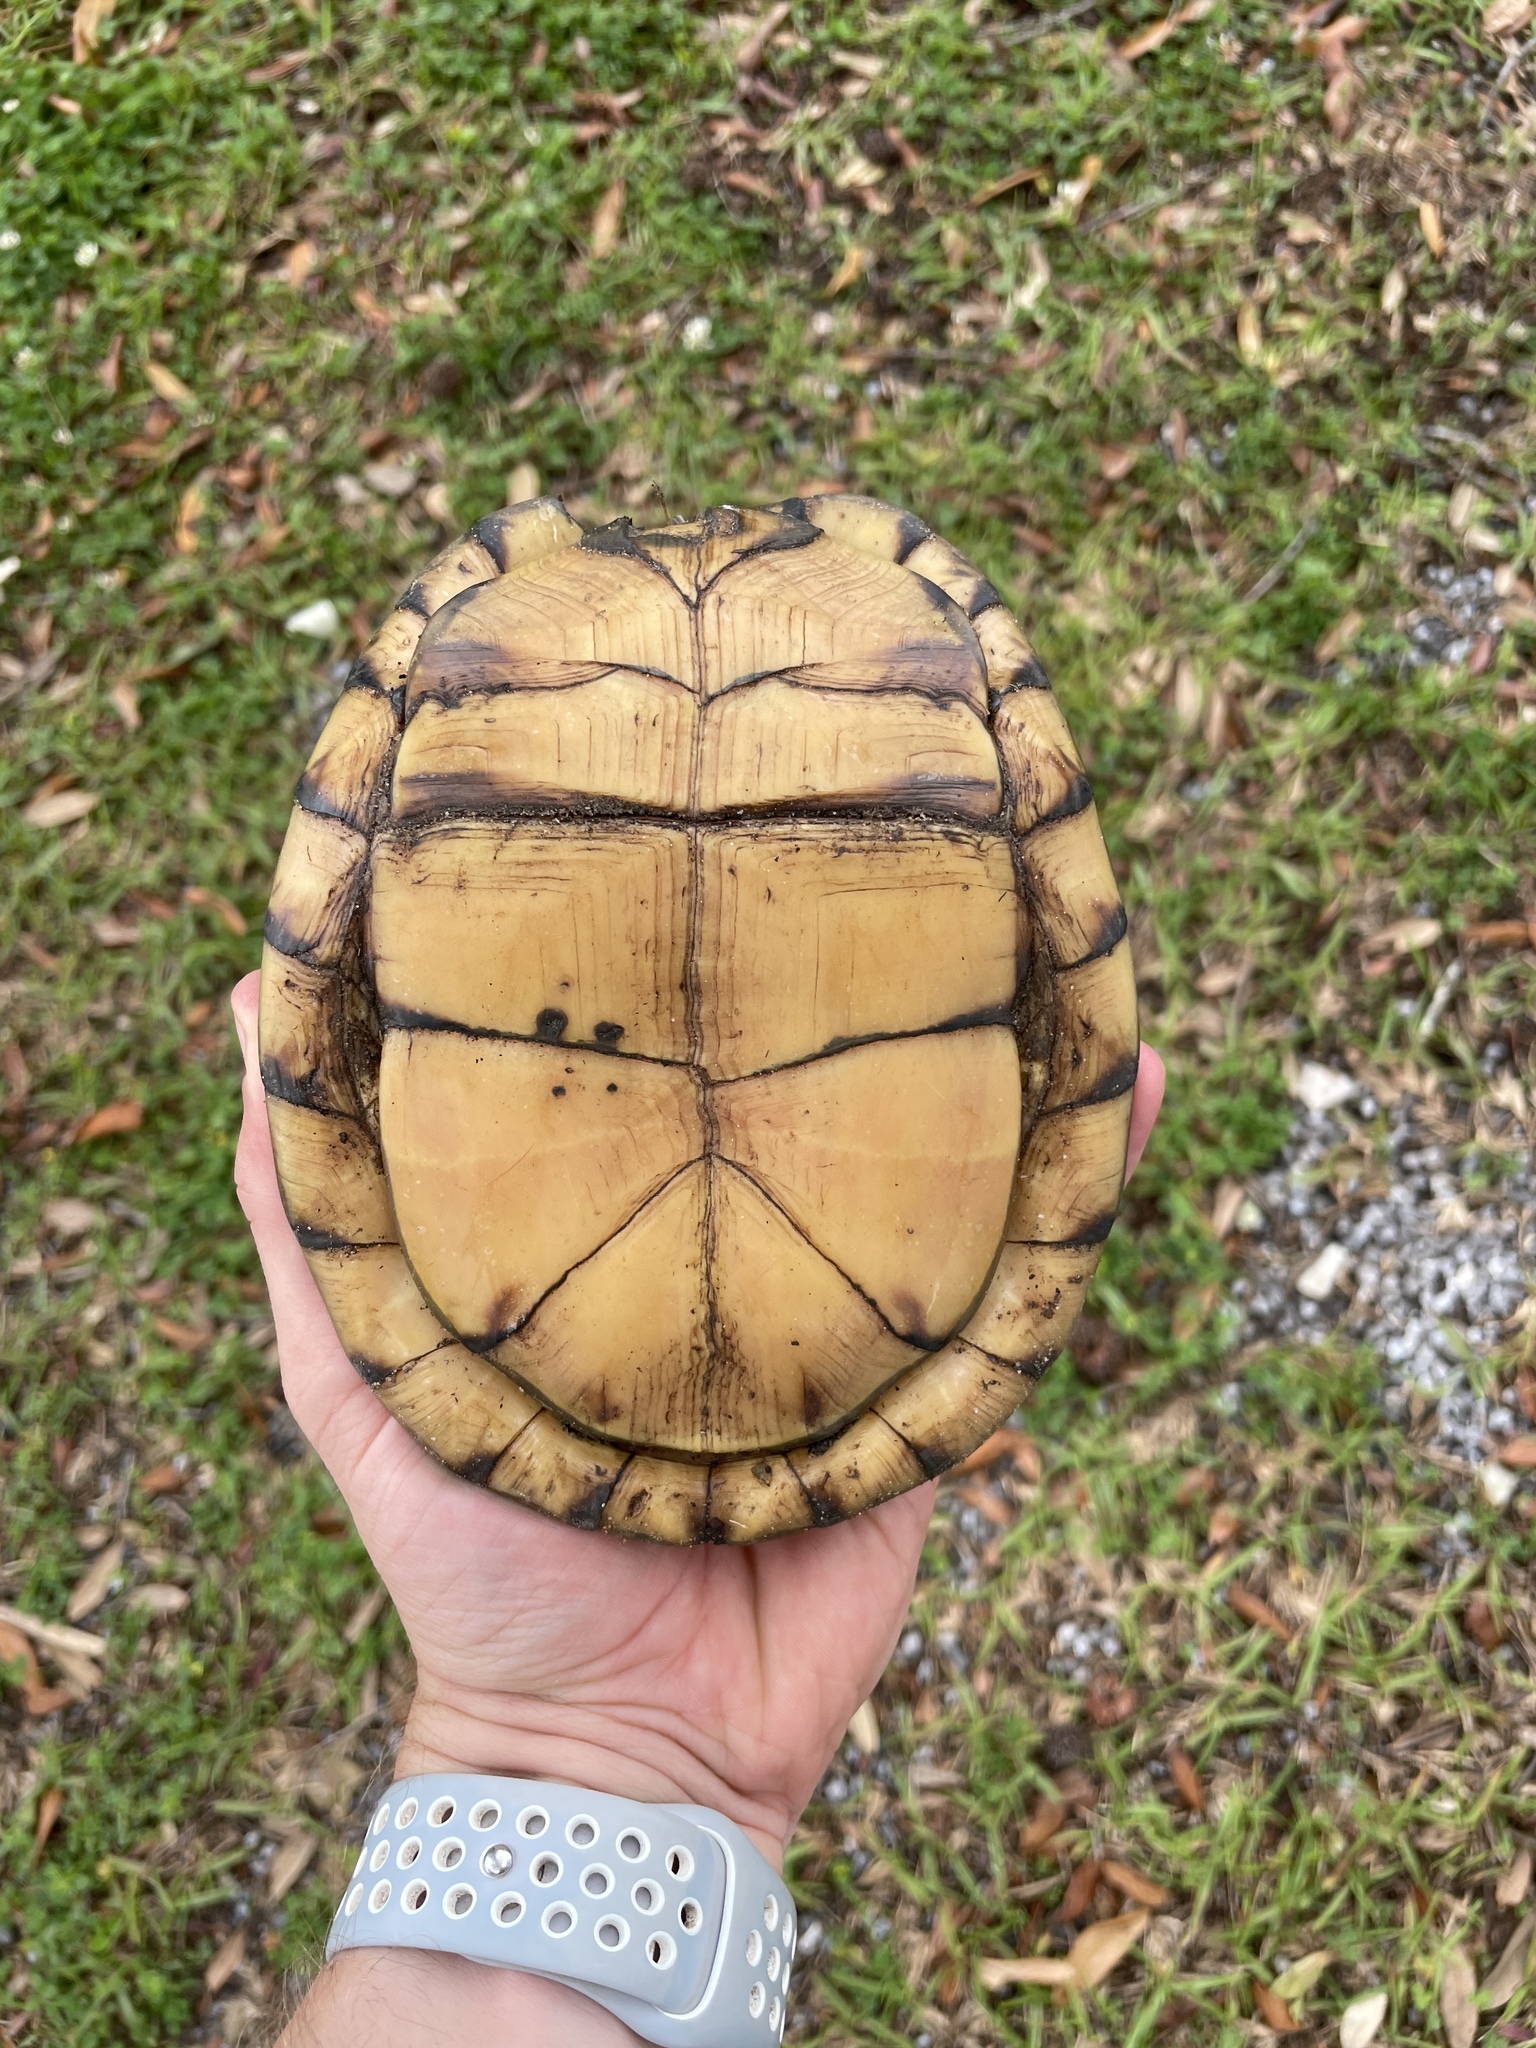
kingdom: Animalia
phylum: Chordata
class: Testudines
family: Emydidae
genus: Terrapene
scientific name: Terrapene carolina
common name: Common box turtle
